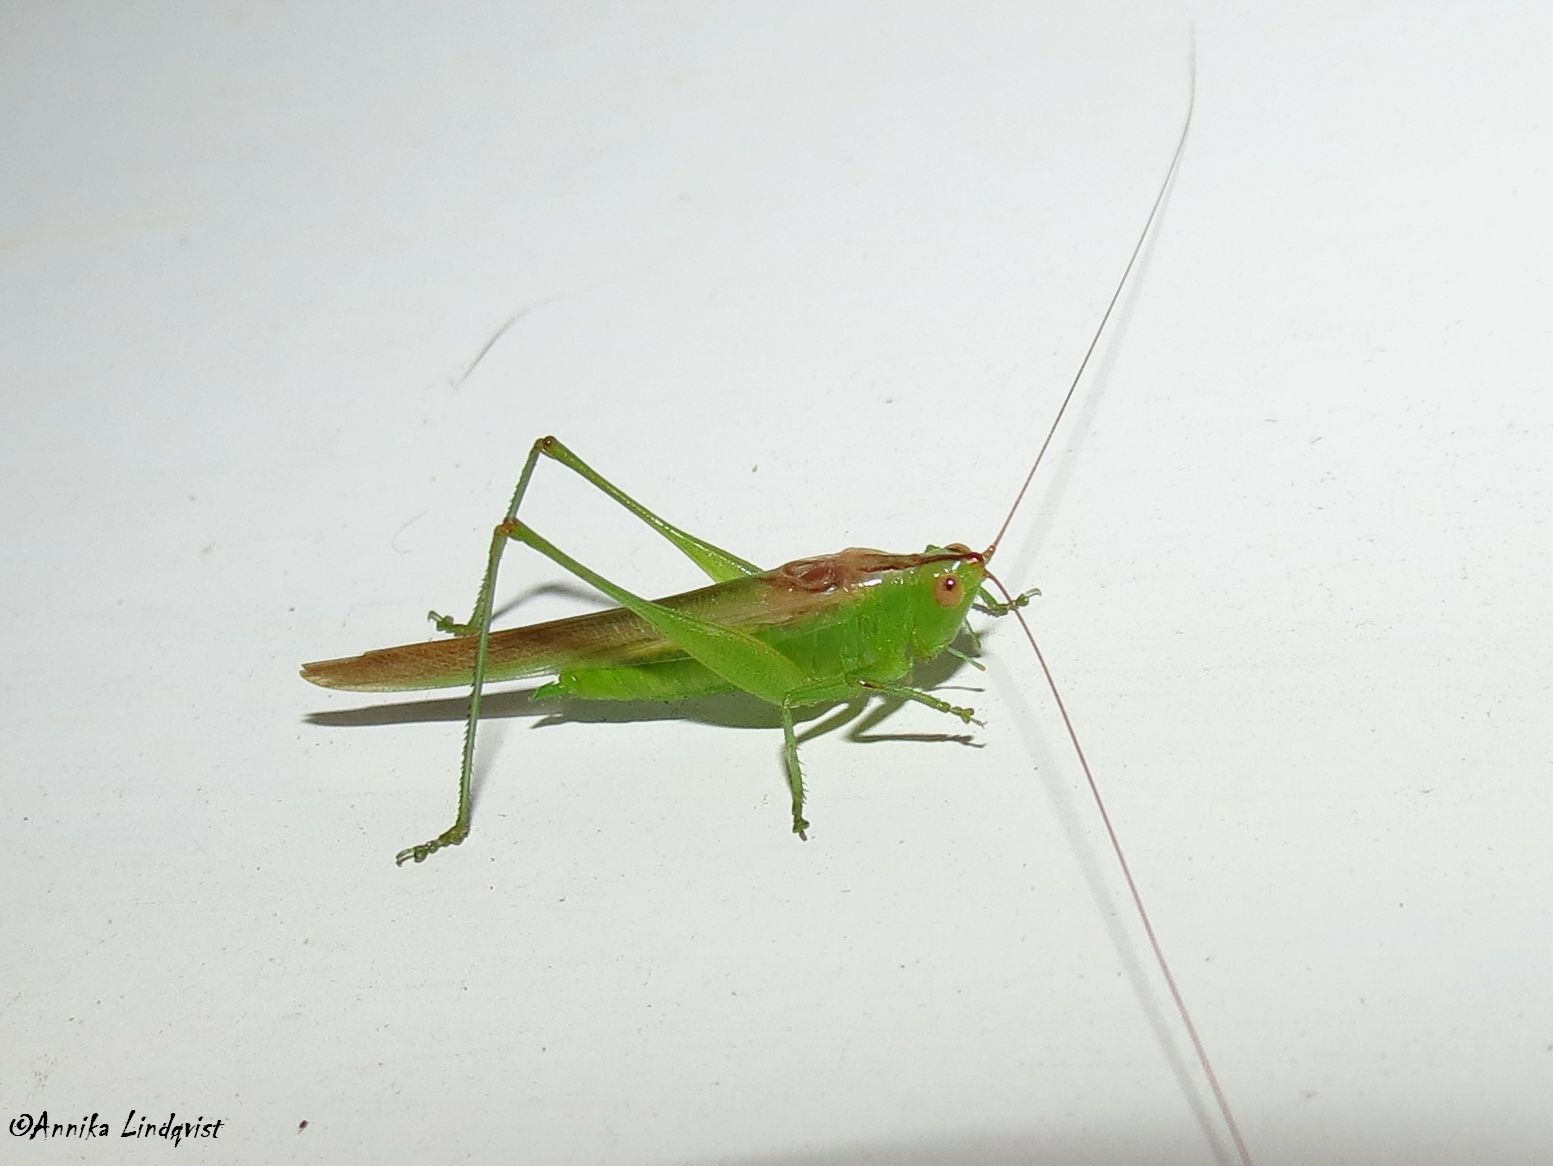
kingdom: Animalia
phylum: Arthropoda
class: Insecta
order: Orthoptera
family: Tettigoniidae
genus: Conocephalus
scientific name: Conocephalus fasciatus
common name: Slender meadow katydid
